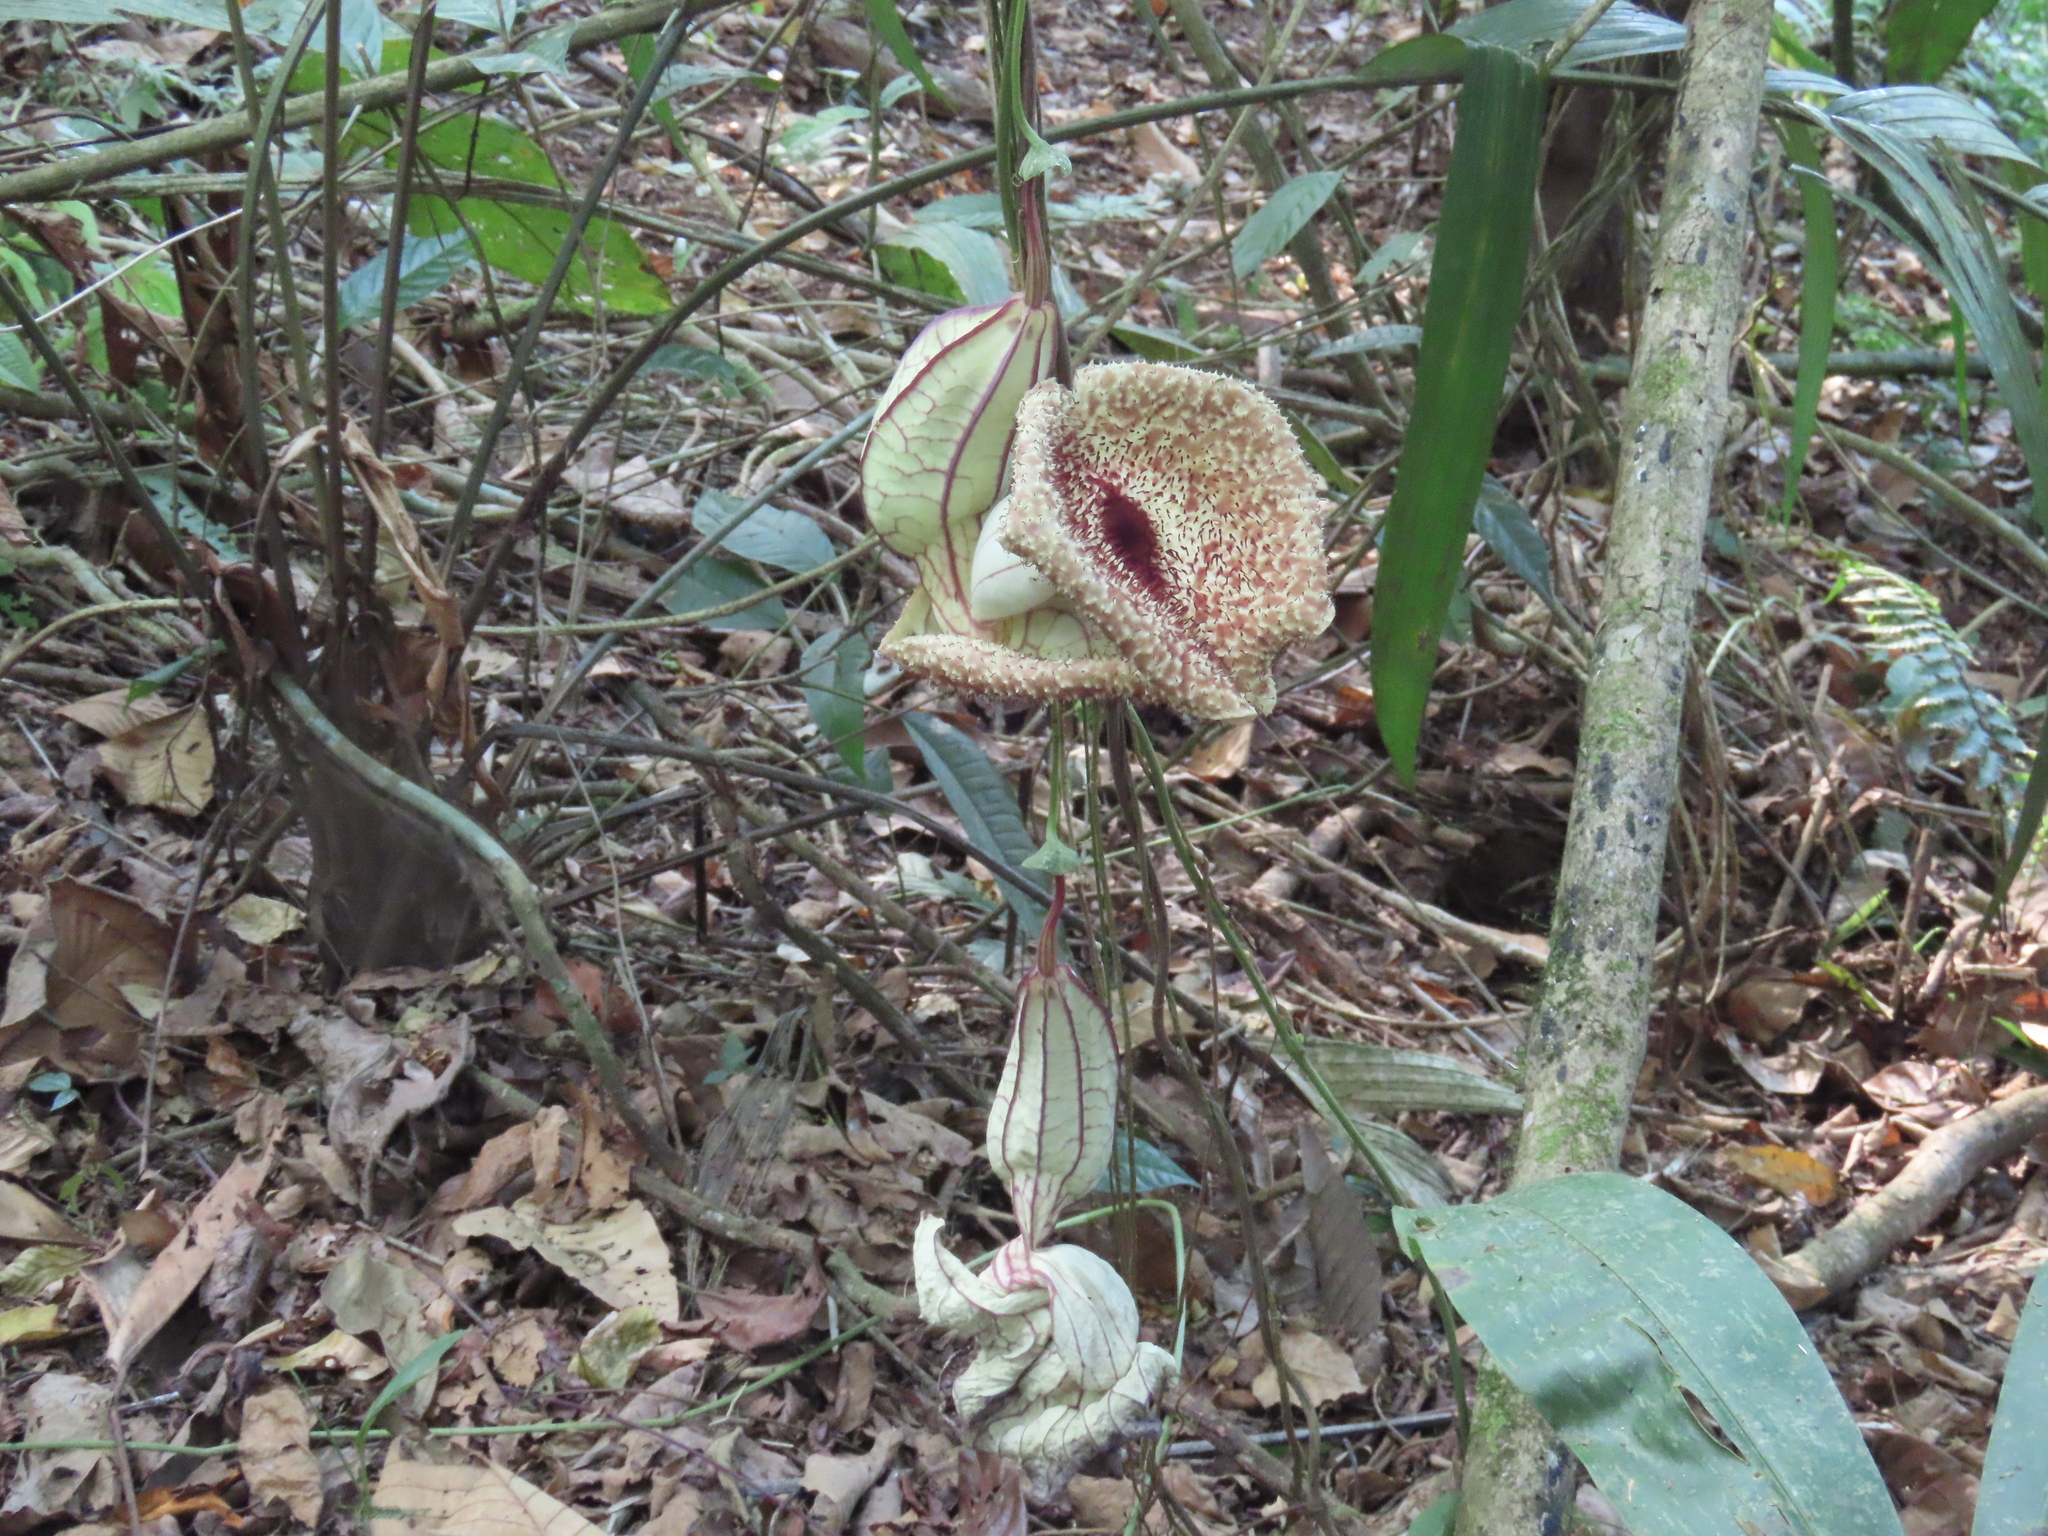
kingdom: Plantae
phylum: Tracheophyta
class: Magnoliopsida
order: Piperales
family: Aristolochiaceae
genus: Aristolochia
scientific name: Aristolochia grandiflora
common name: Pelicanflower
